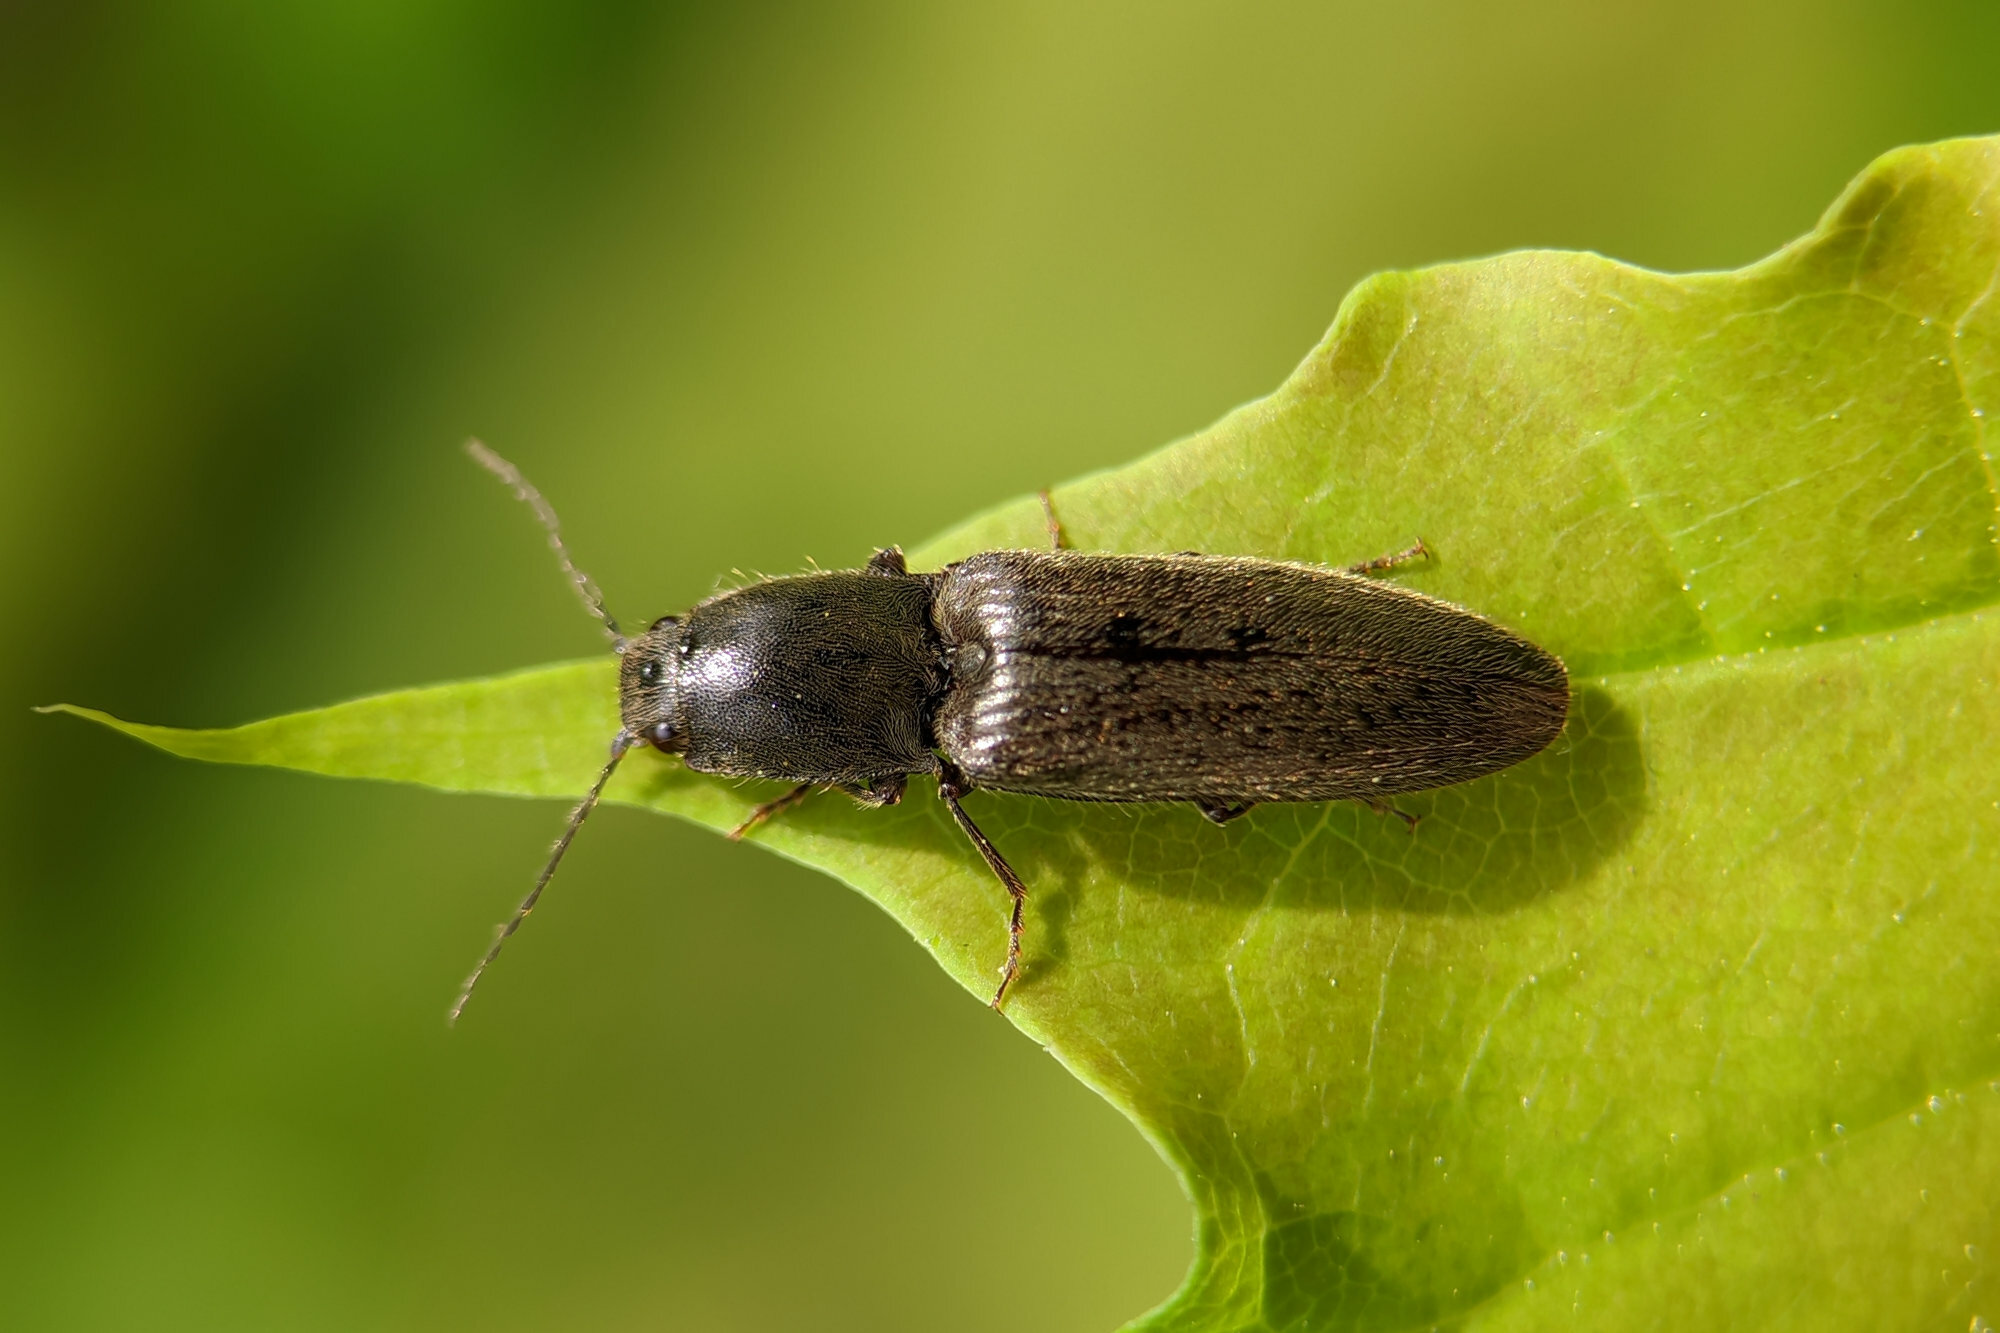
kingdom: Animalia
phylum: Arthropoda
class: Insecta
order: Coleoptera
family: Elateridae
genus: Athous
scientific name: Athous haemorrhoidalis
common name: Red-brown click beetle
